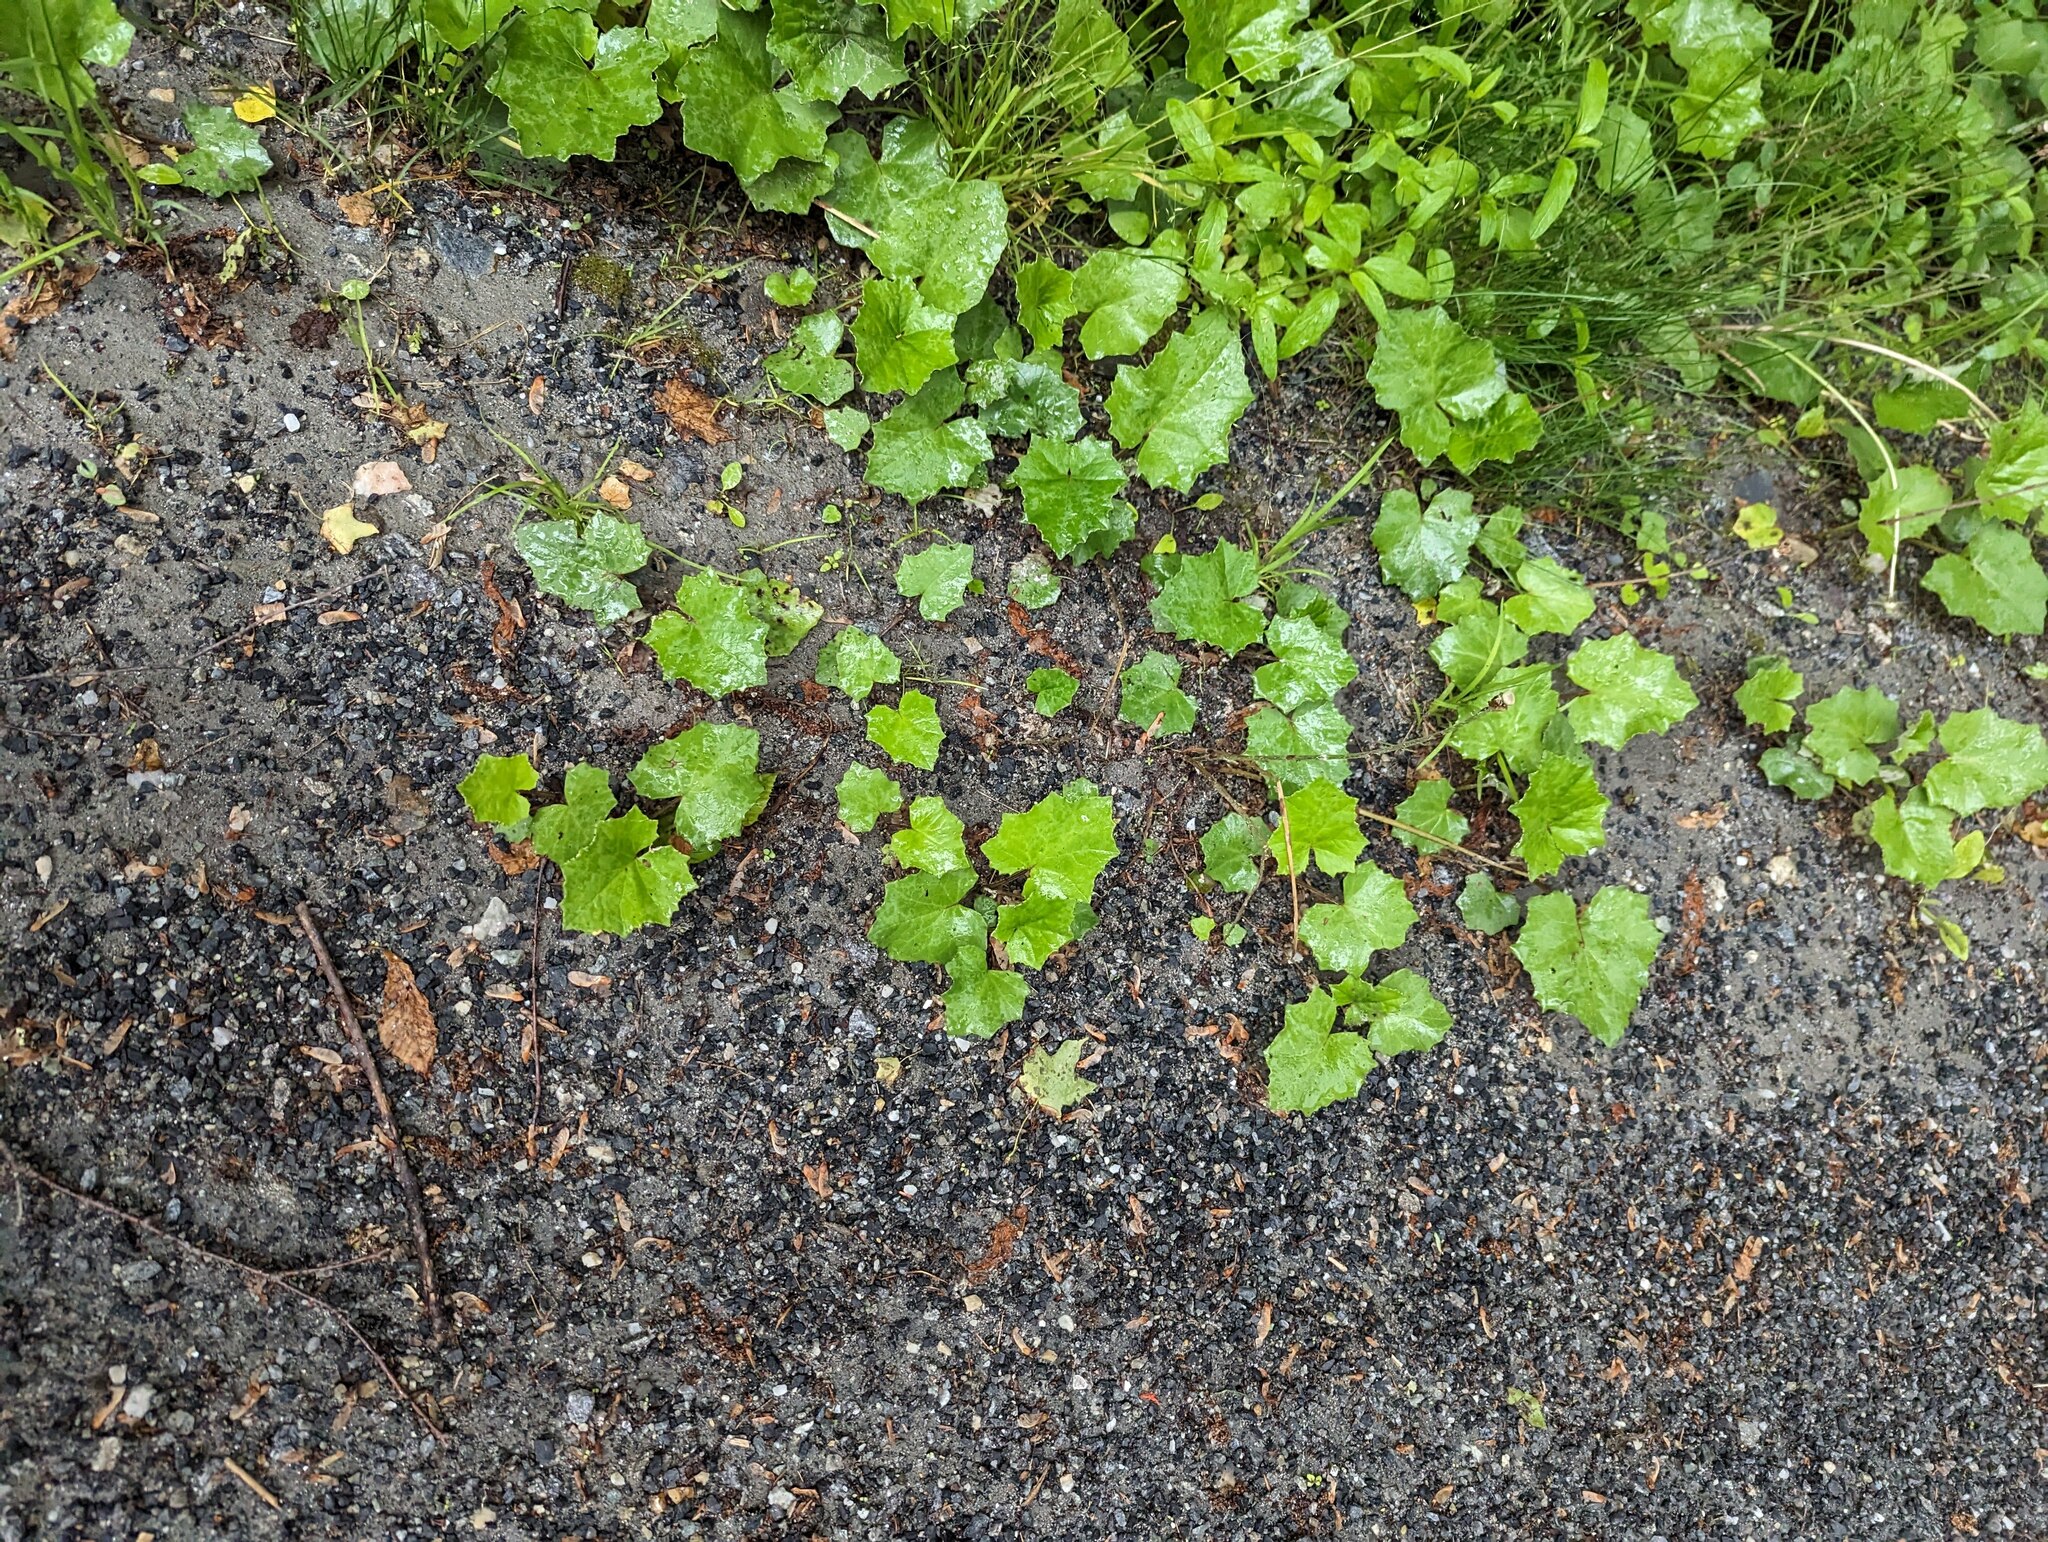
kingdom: Plantae
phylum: Tracheophyta
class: Magnoliopsida
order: Asterales
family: Asteraceae
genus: Tussilago
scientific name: Tussilago farfara
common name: Coltsfoot
